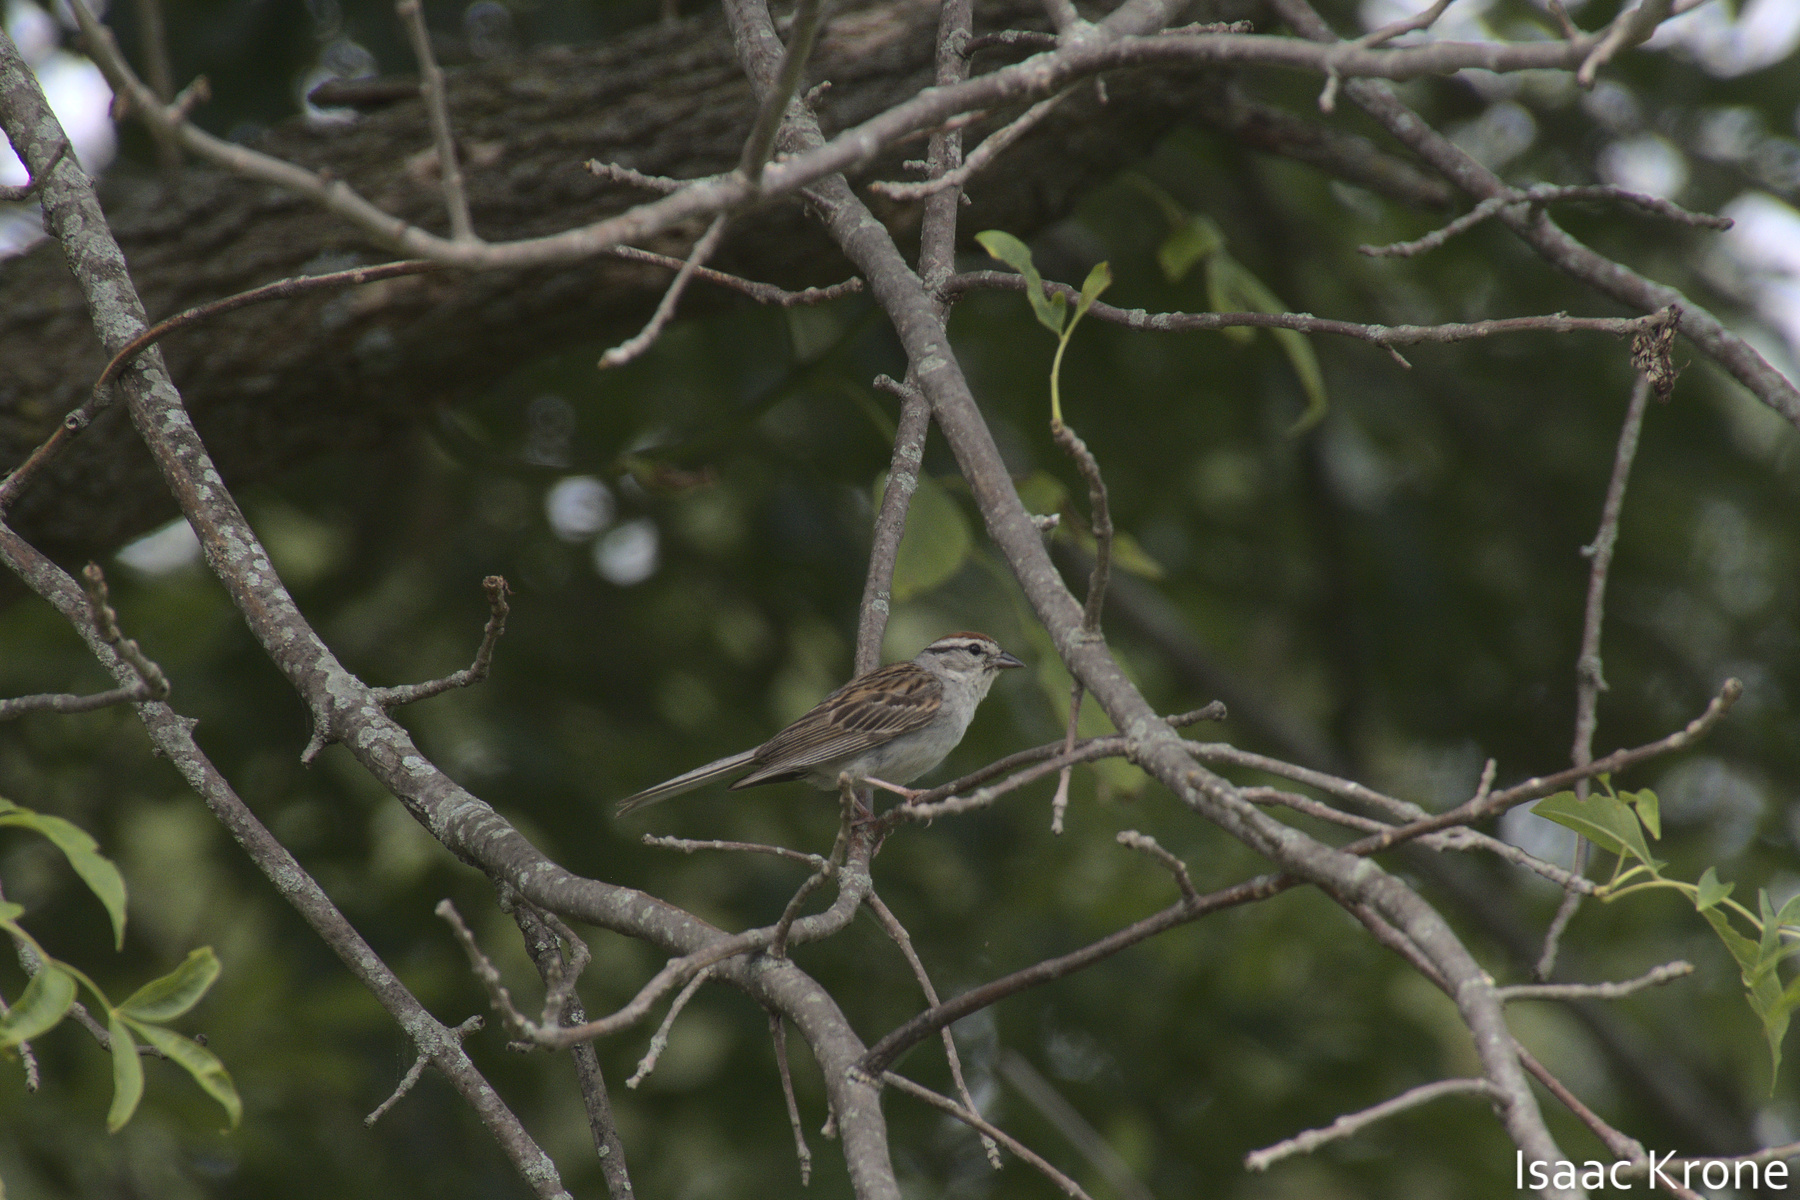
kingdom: Animalia
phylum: Chordata
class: Aves
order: Passeriformes
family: Passerellidae
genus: Spizella
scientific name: Spizella passerina
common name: Chipping sparrow
